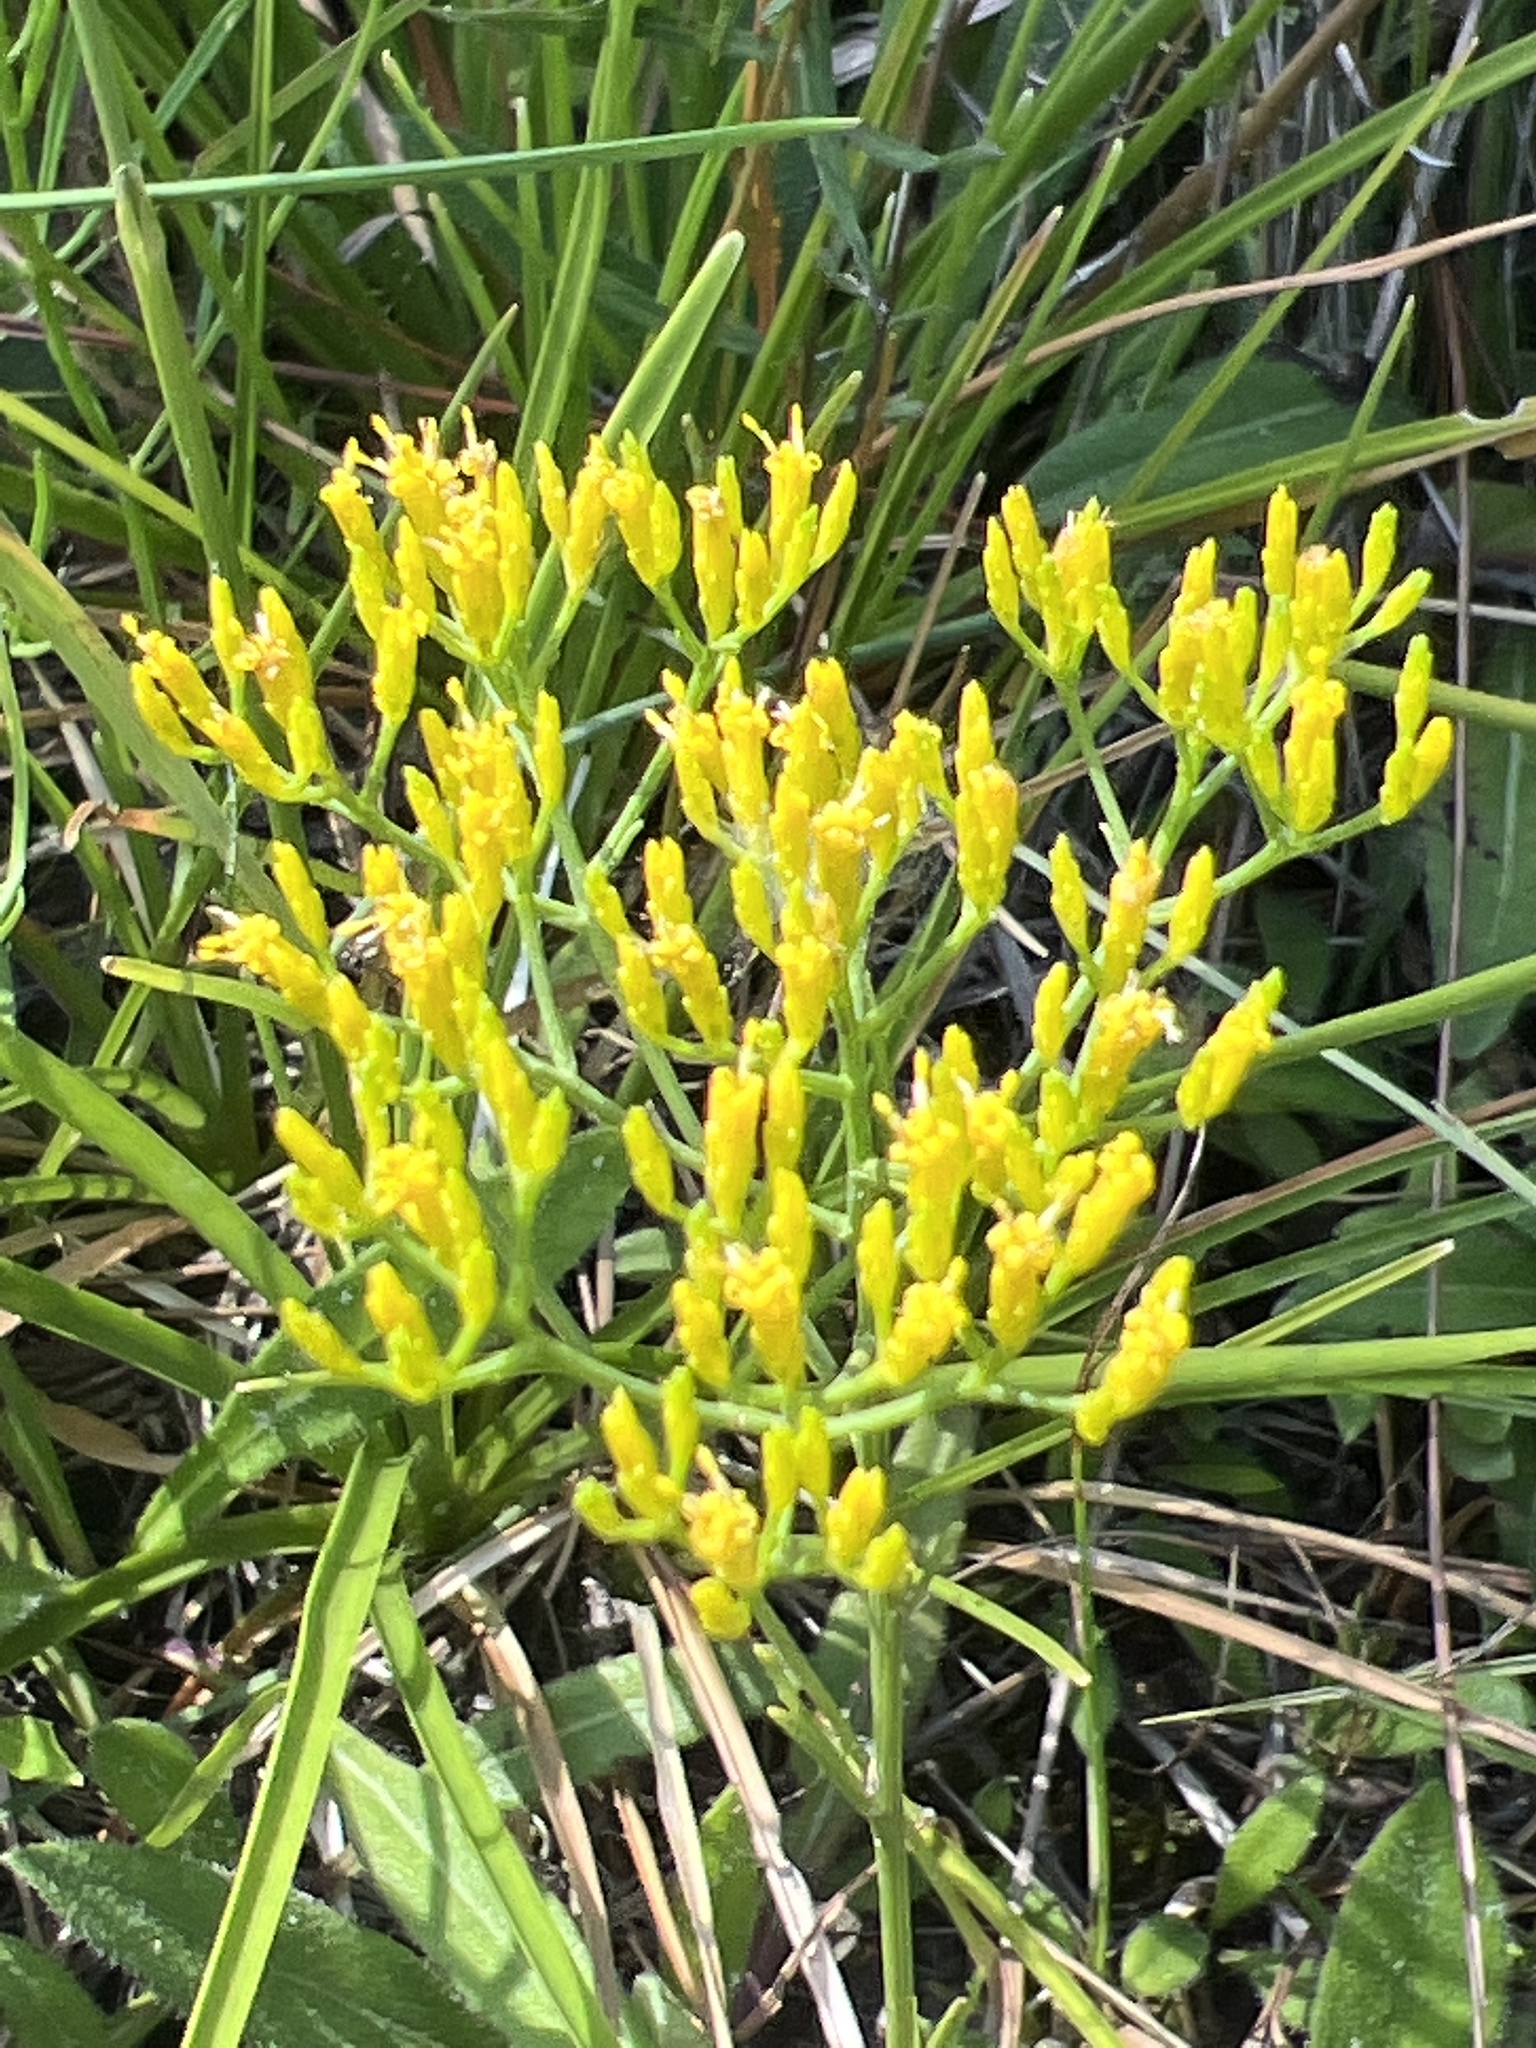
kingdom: Plantae
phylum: Tracheophyta
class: Magnoliopsida
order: Asterales
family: Asteraceae
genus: Bigelowia
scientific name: Bigelowia nudata
